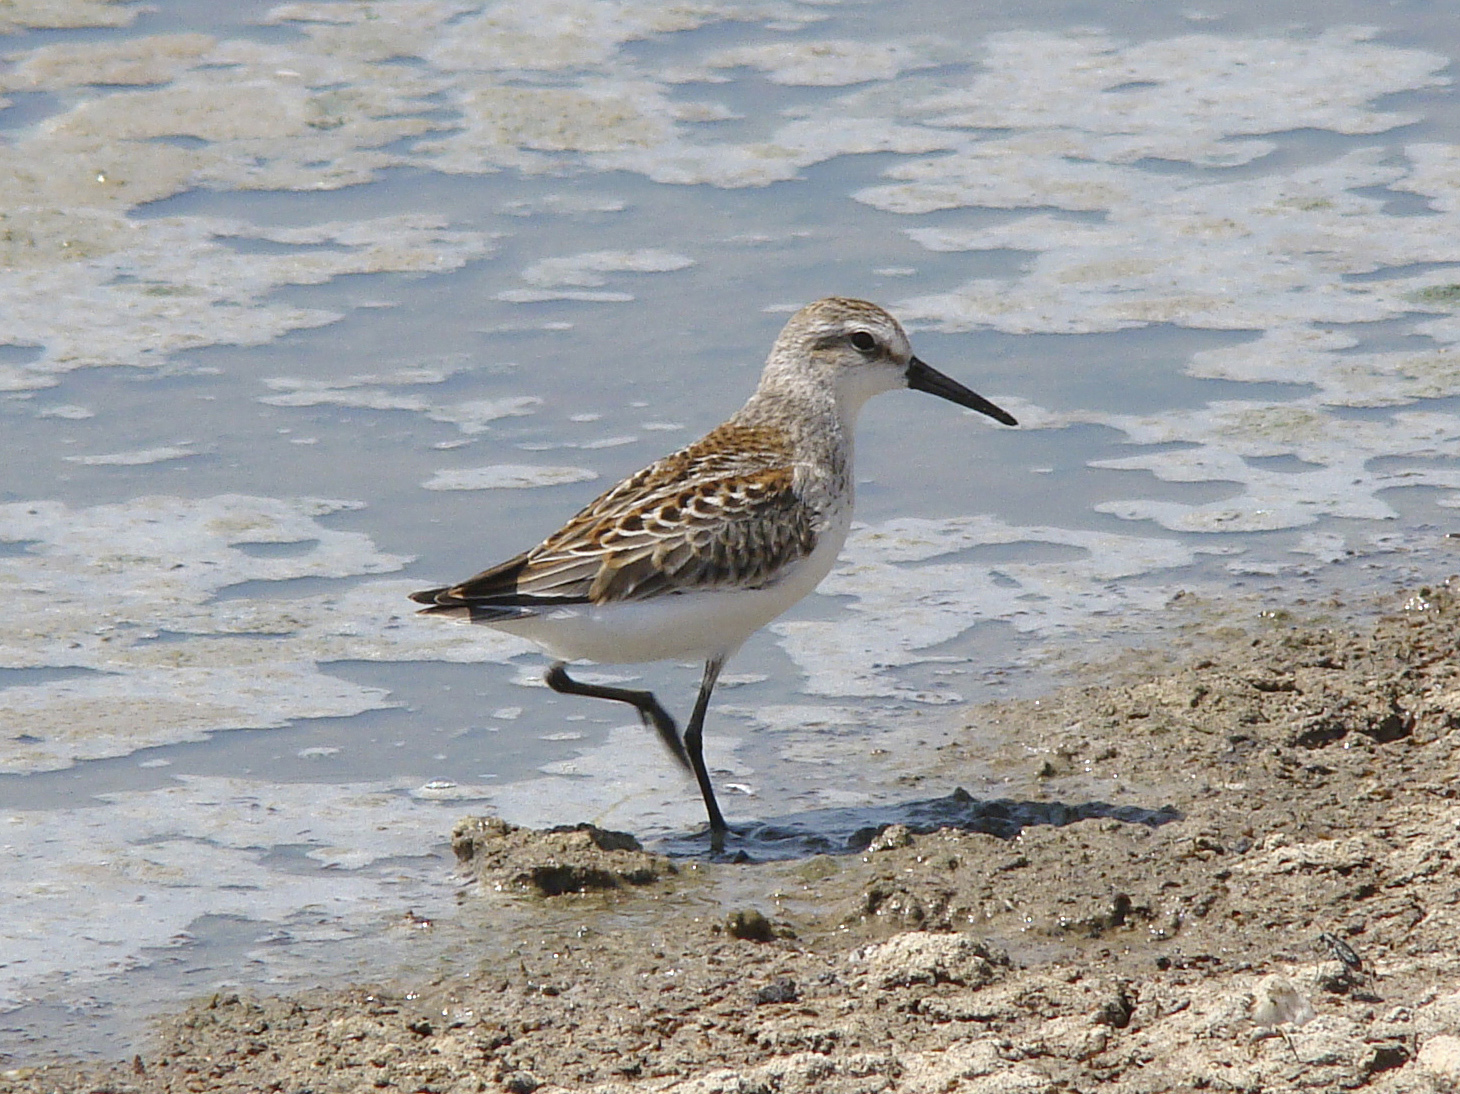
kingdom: Animalia
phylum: Chordata
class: Aves
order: Charadriiformes
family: Scolopacidae
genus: Calidris
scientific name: Calidris mauri
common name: Western sandpiper
